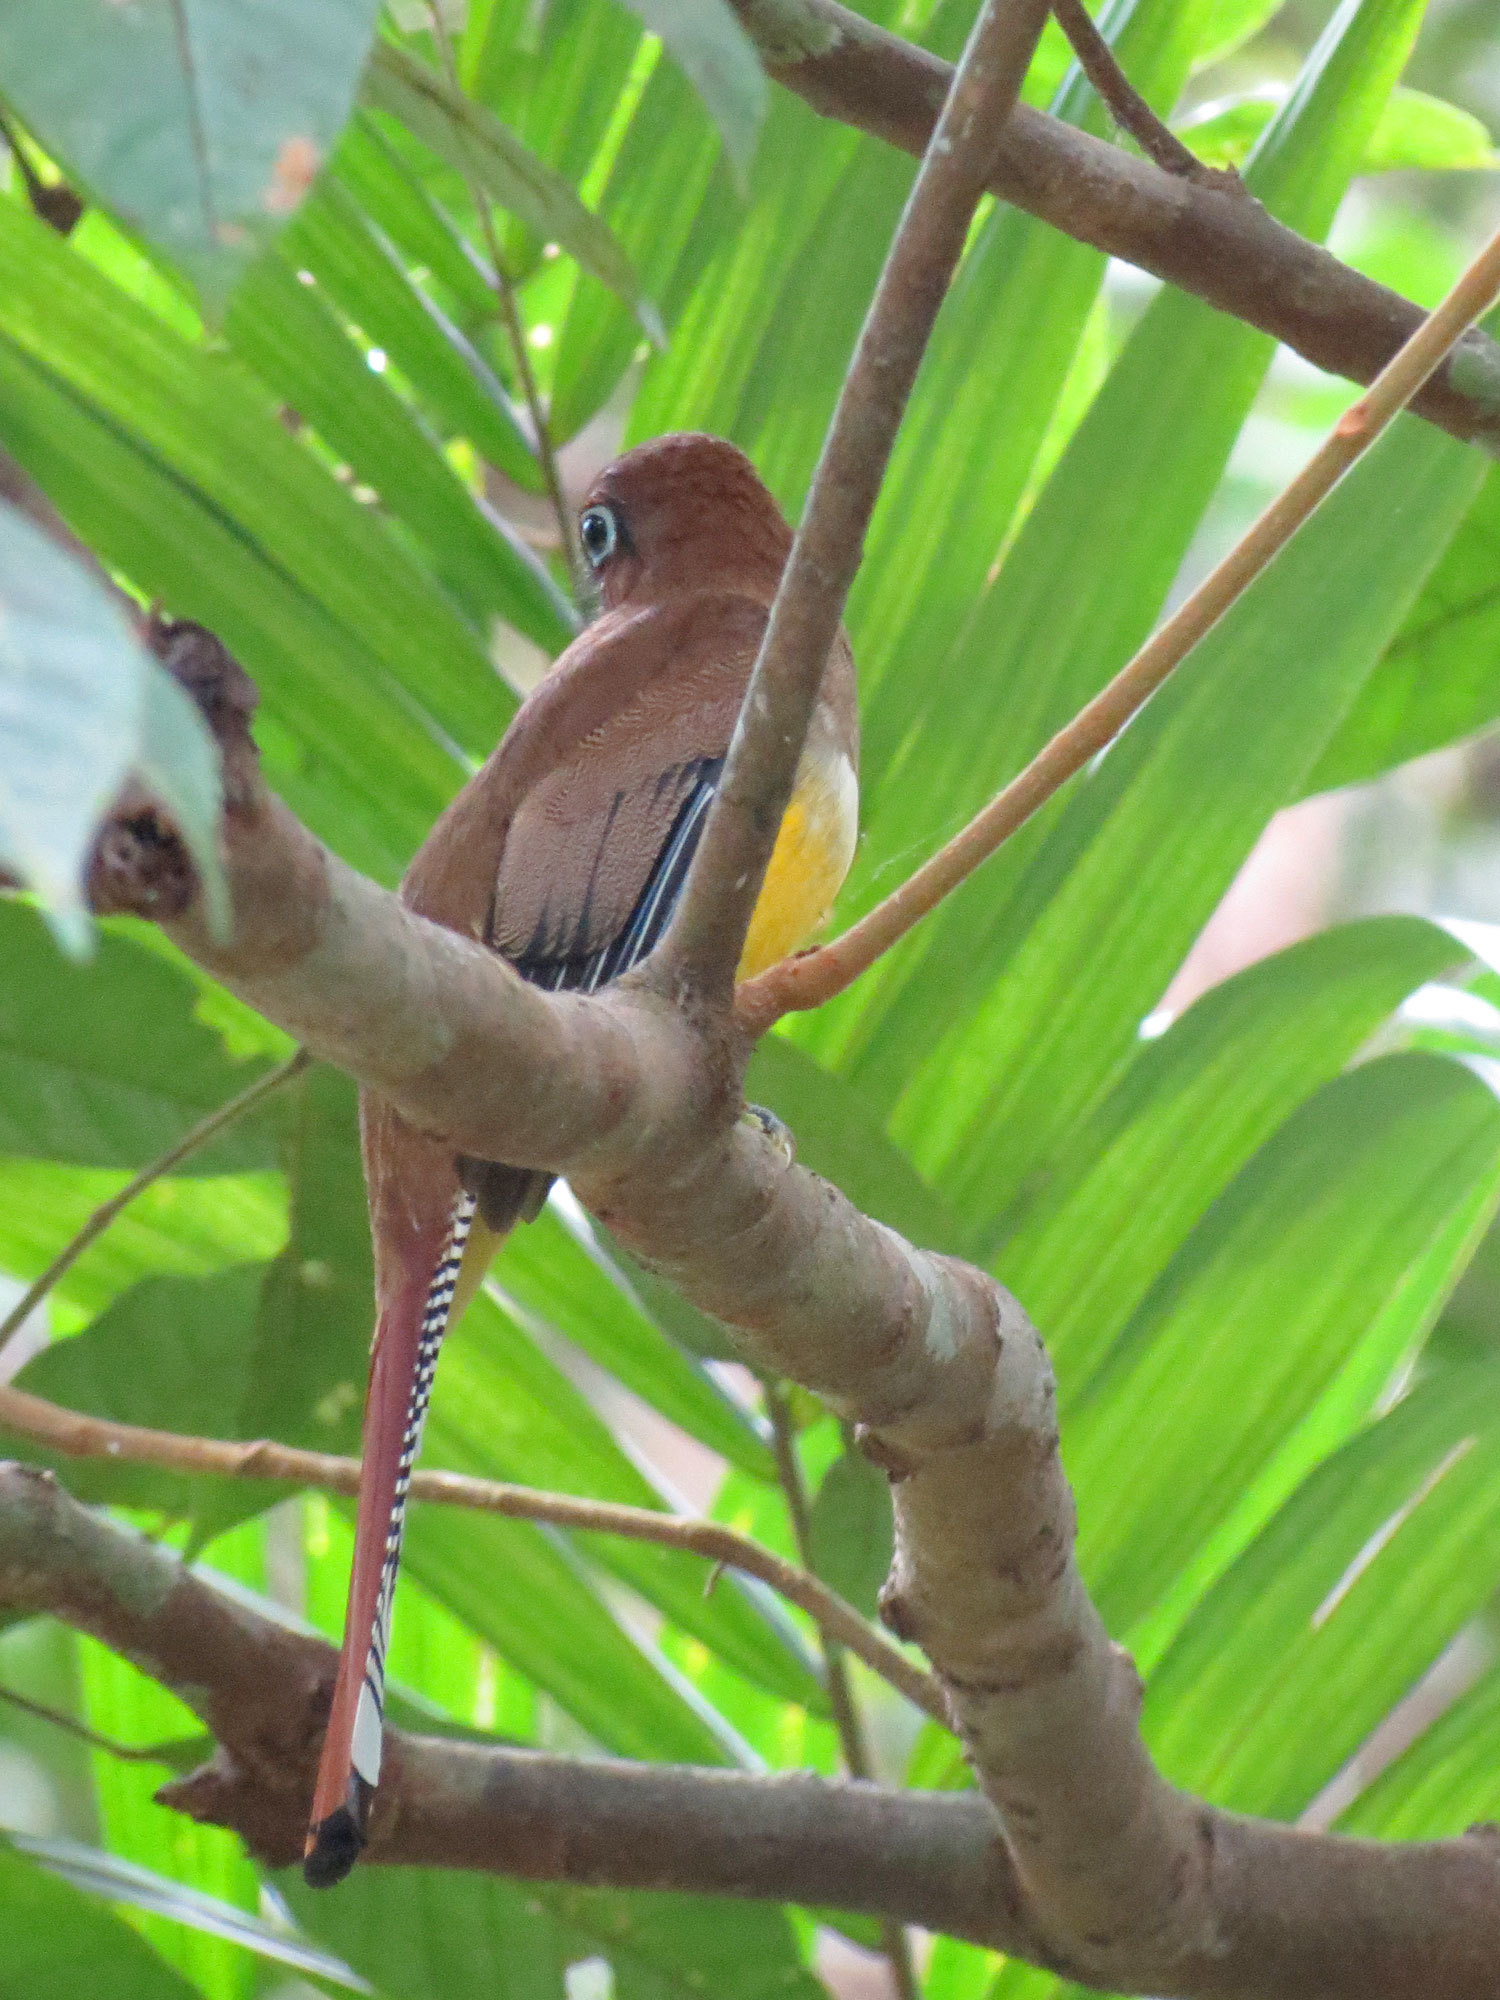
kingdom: Animalia
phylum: Chordata
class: Aves
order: Trogoniformes
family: Trogonidae
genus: Trogon
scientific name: Trogon rufus
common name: Black-throated trogon
